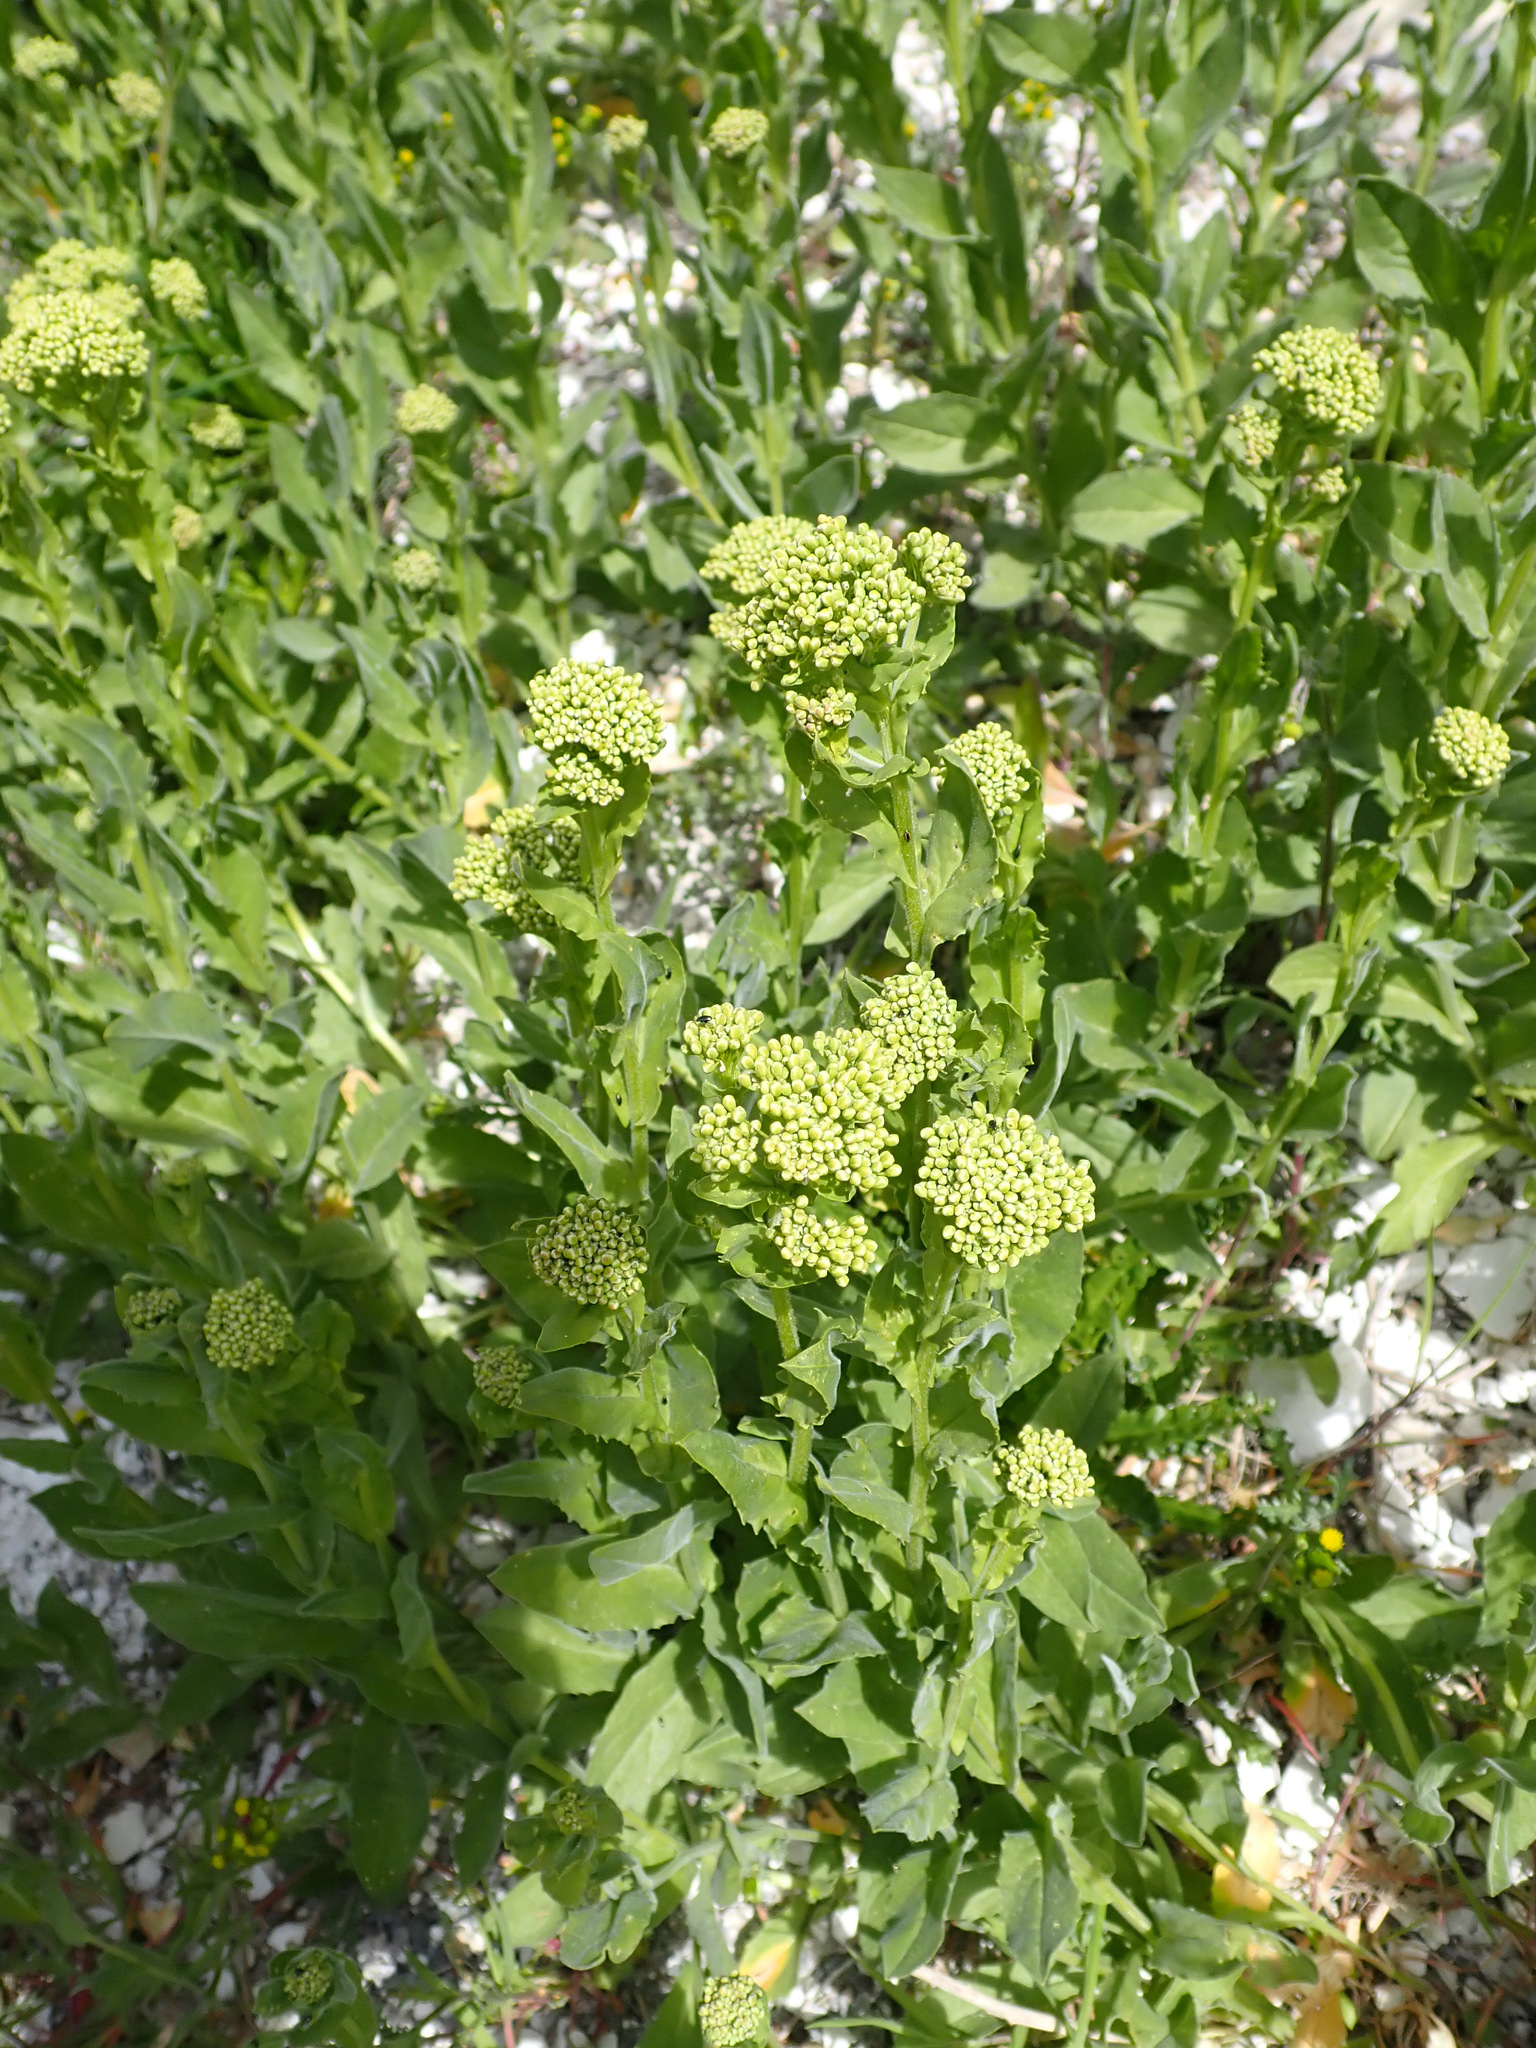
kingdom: Plantae
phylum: Tracheophyta
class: Magnoliopsida
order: Brassicales
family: Brassicaceae
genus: Lepidium
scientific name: Lepidium draba
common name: Hoary cress
